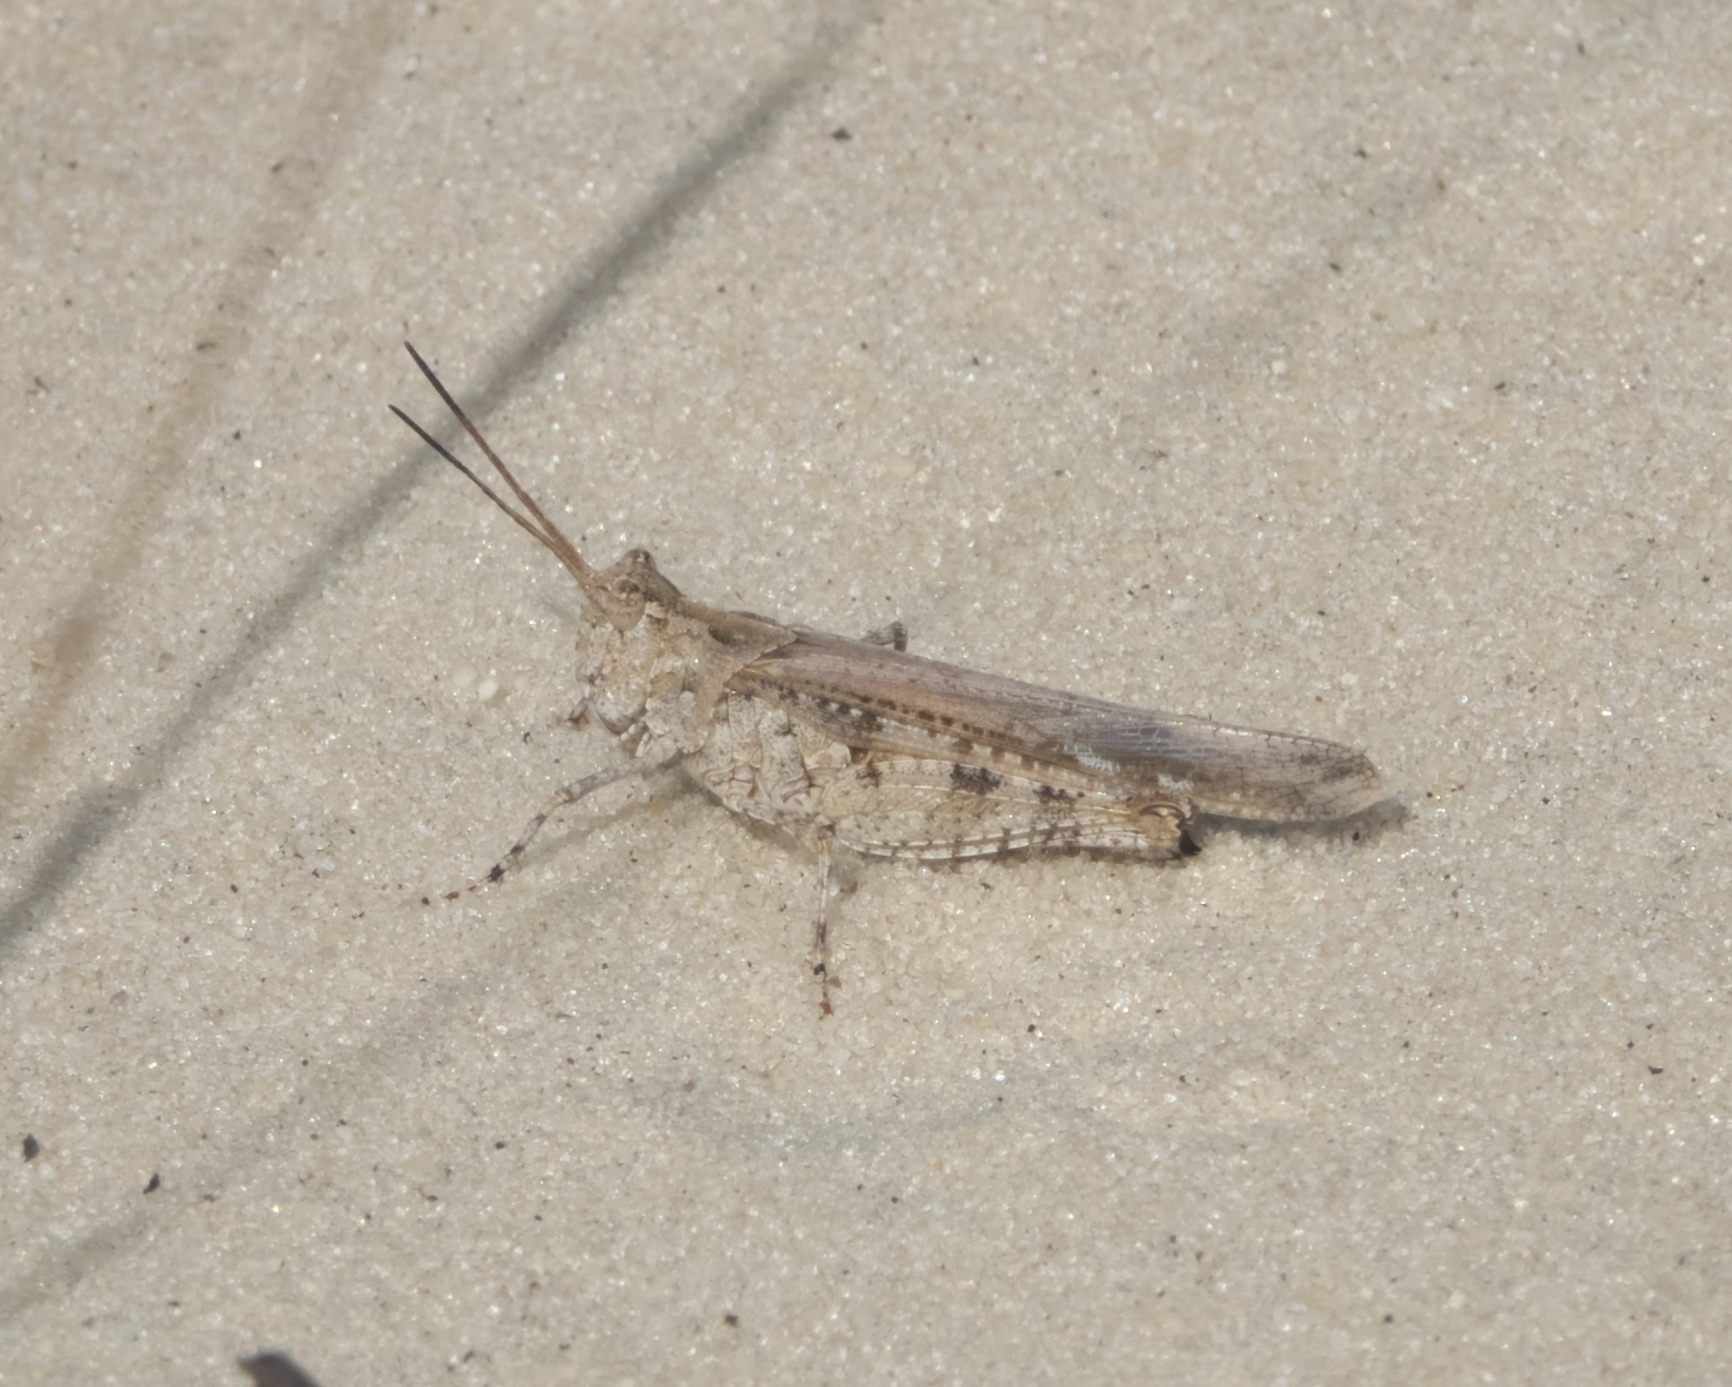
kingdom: Animalia
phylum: Arthropoda
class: Insecta
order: Orthoptera
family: Acrididae
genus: Psinidia
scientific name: Psinidia fenestralis
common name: Long-horned locust
